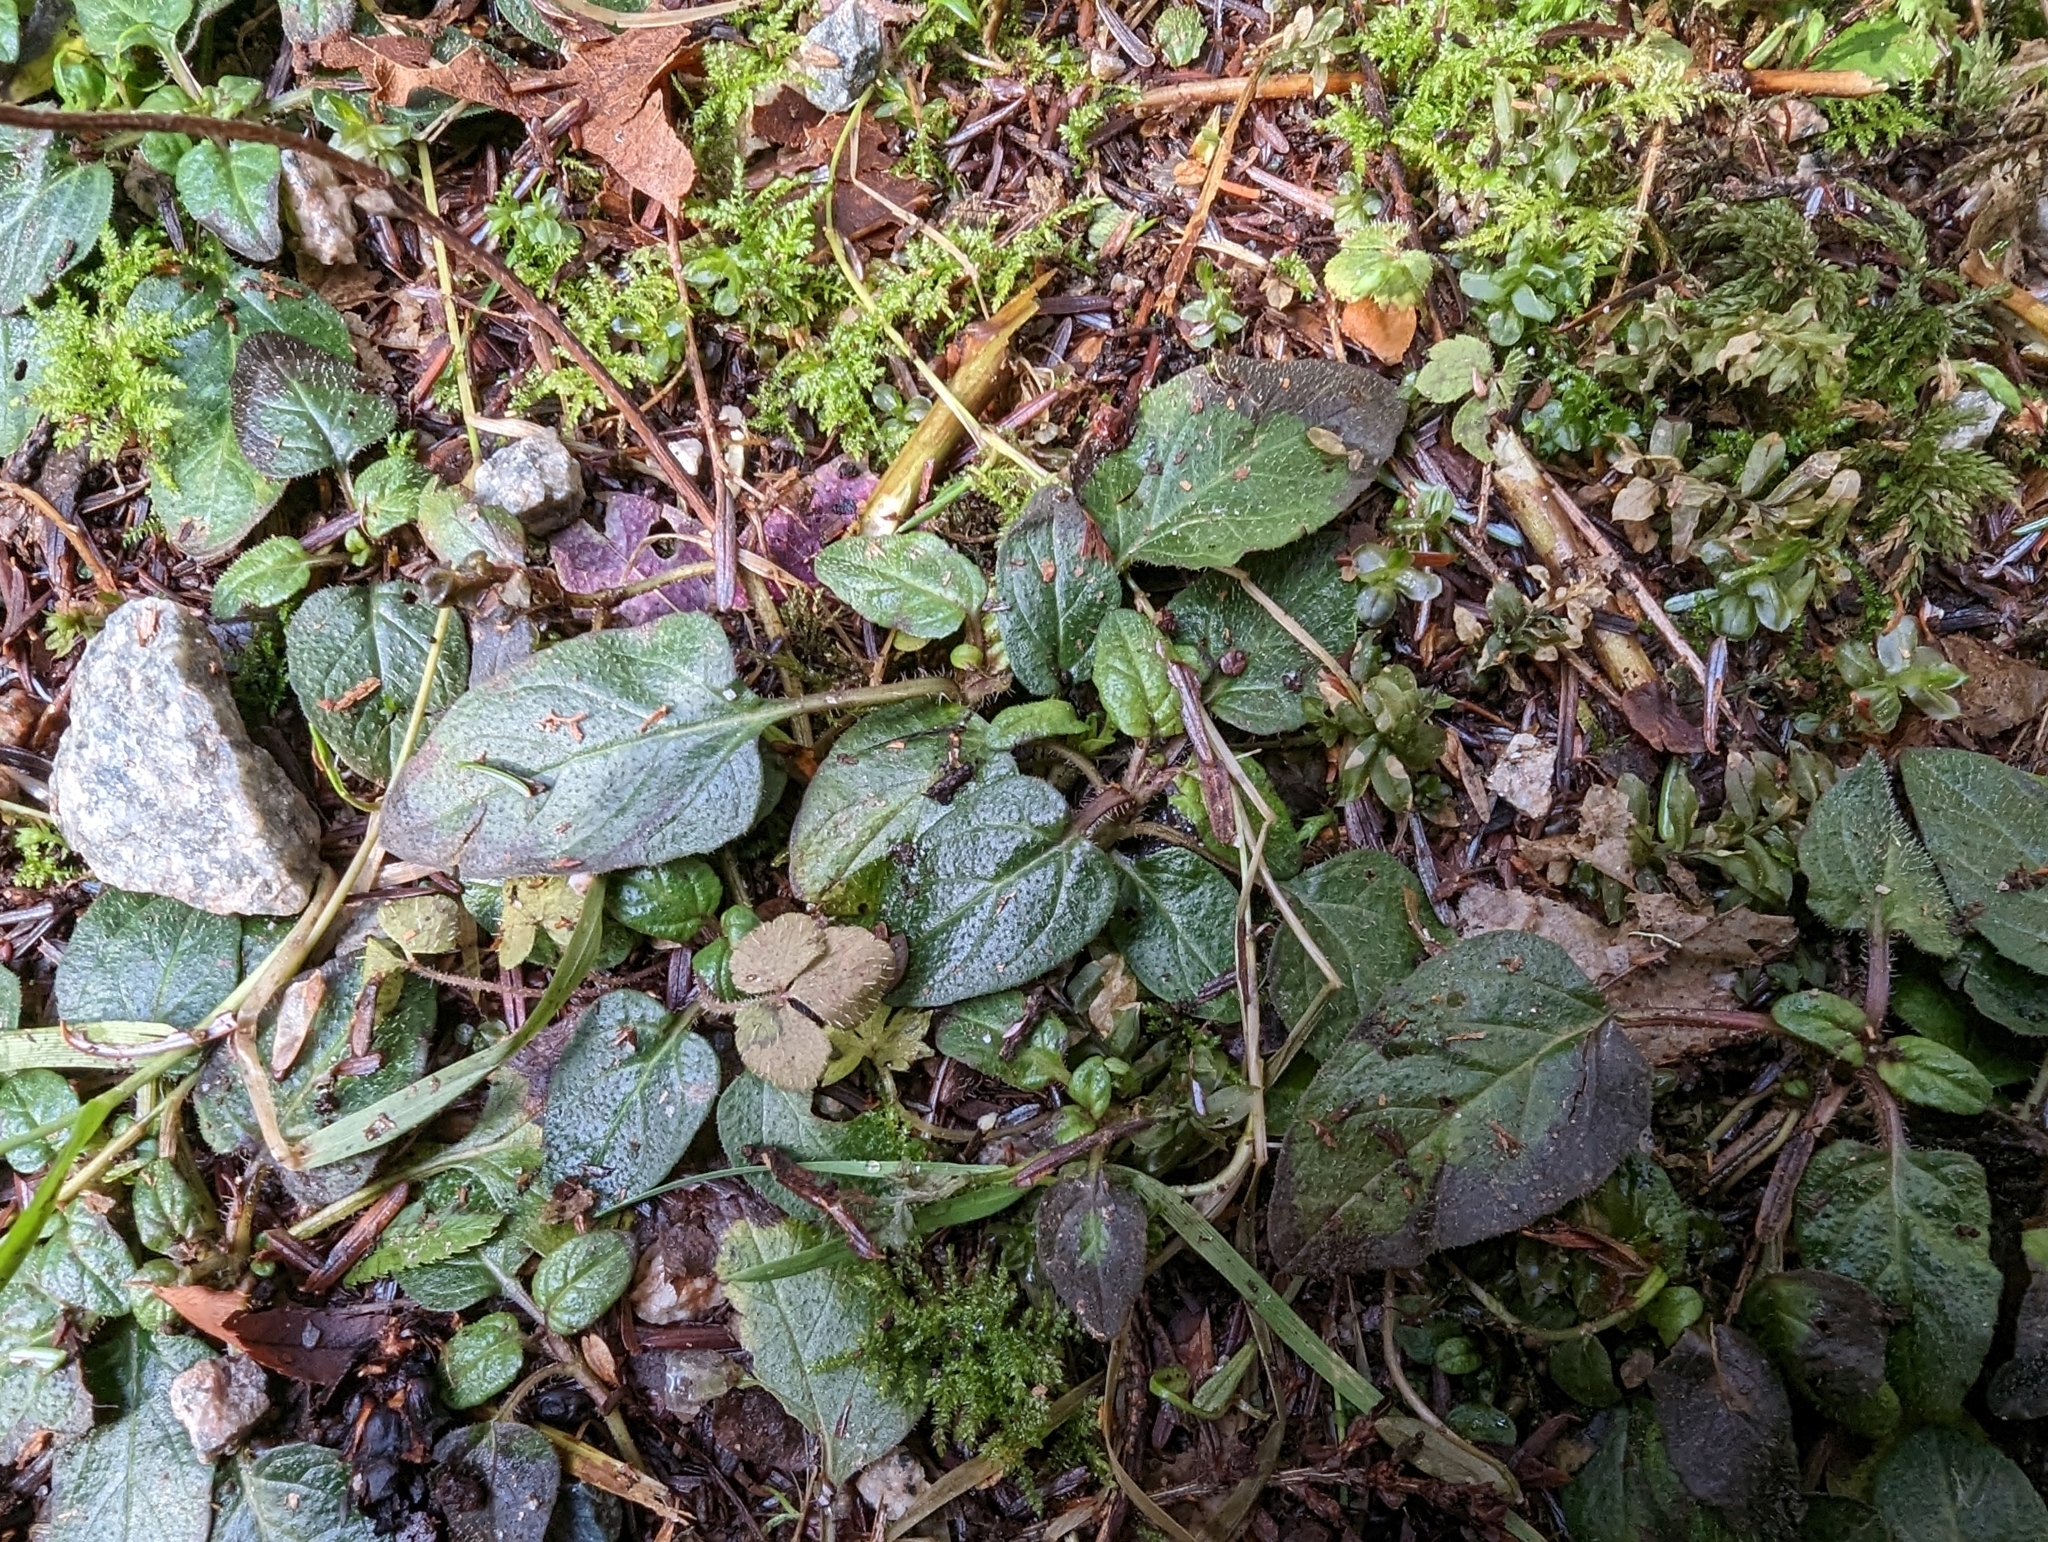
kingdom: Plantae
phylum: Tracheophyta
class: Magnoliopsida
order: Lamiales
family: Lamiaceae
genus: Prunella
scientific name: Prunella vulgaris
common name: Heal-all
